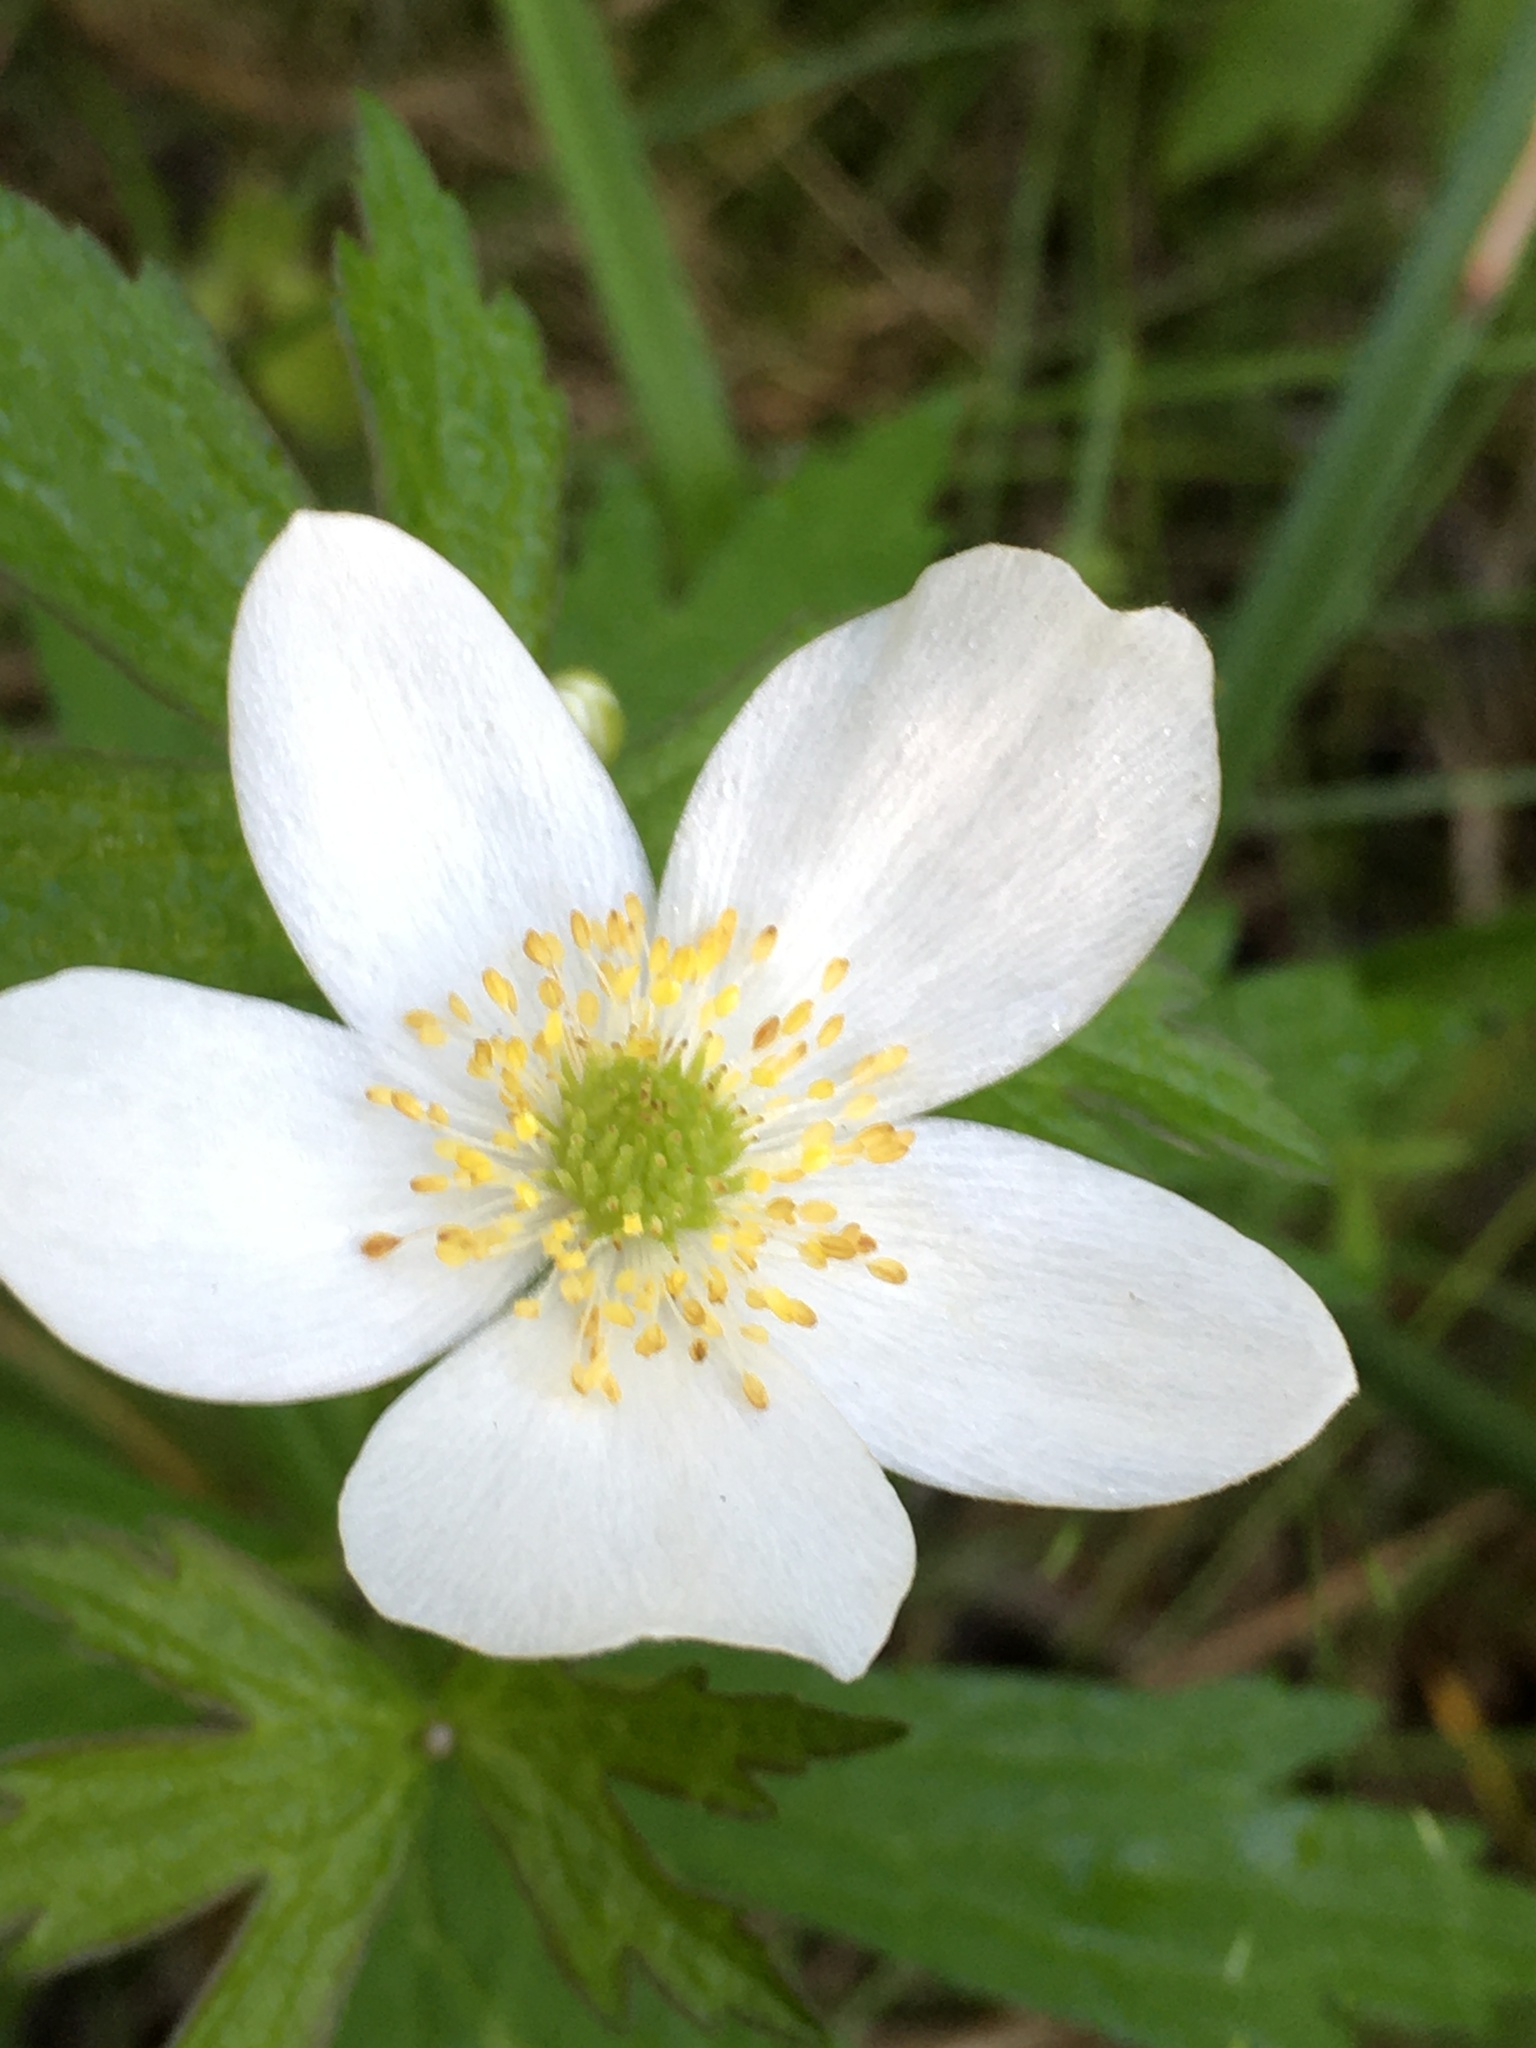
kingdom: Plantae
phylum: Tracheophyta
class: Magnoliopsida
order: Ranunculales
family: Ranunculaceae
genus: Anemonastrum
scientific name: Anemonastrum canadense
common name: Canada anemone
